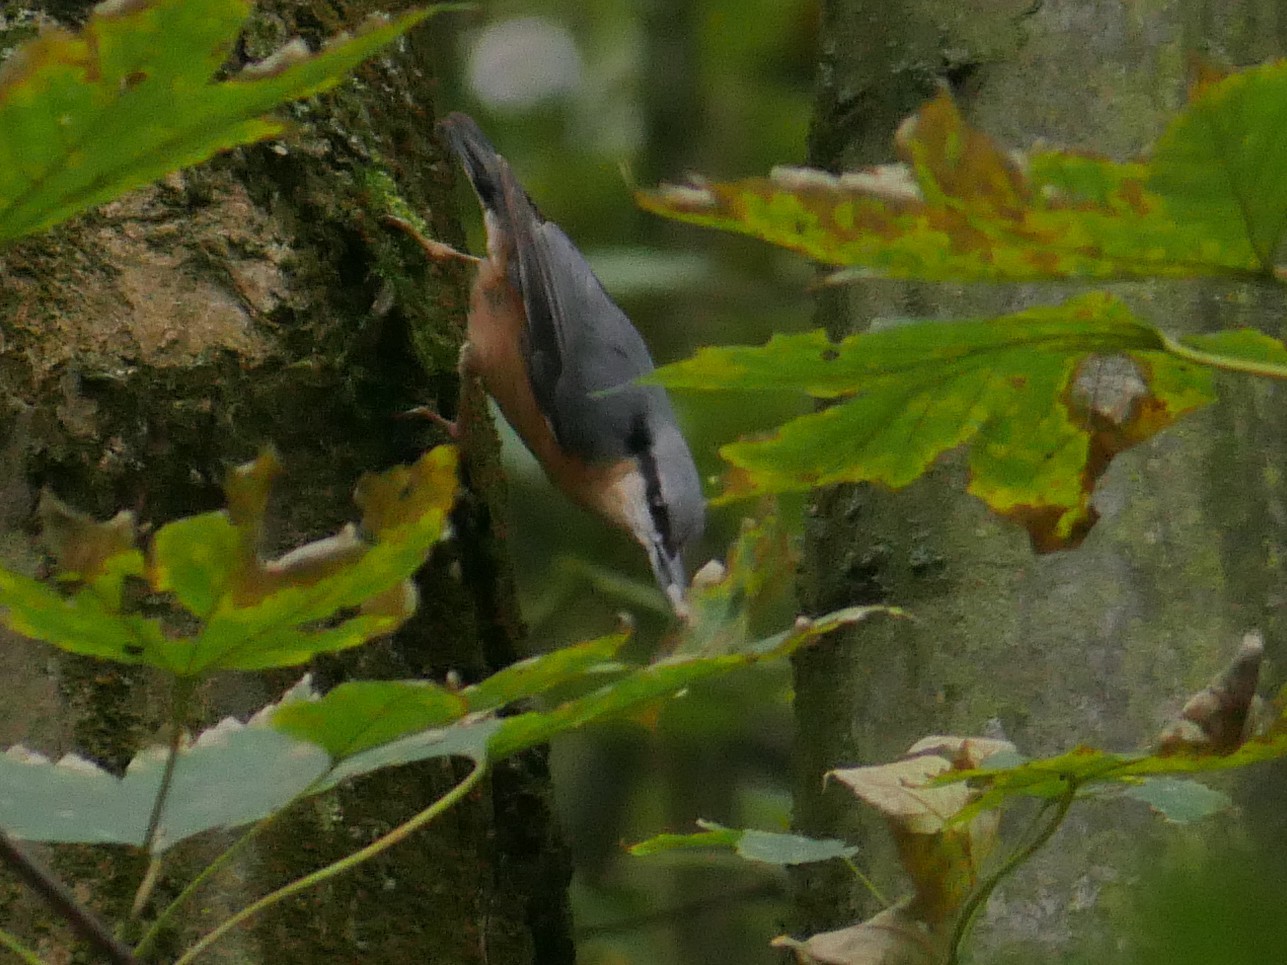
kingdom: Animalia
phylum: Chordata
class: Aves
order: Passeriformes
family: Sittidae
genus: Sitta
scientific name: Sitta europaea
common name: Eurasian nuthatch
